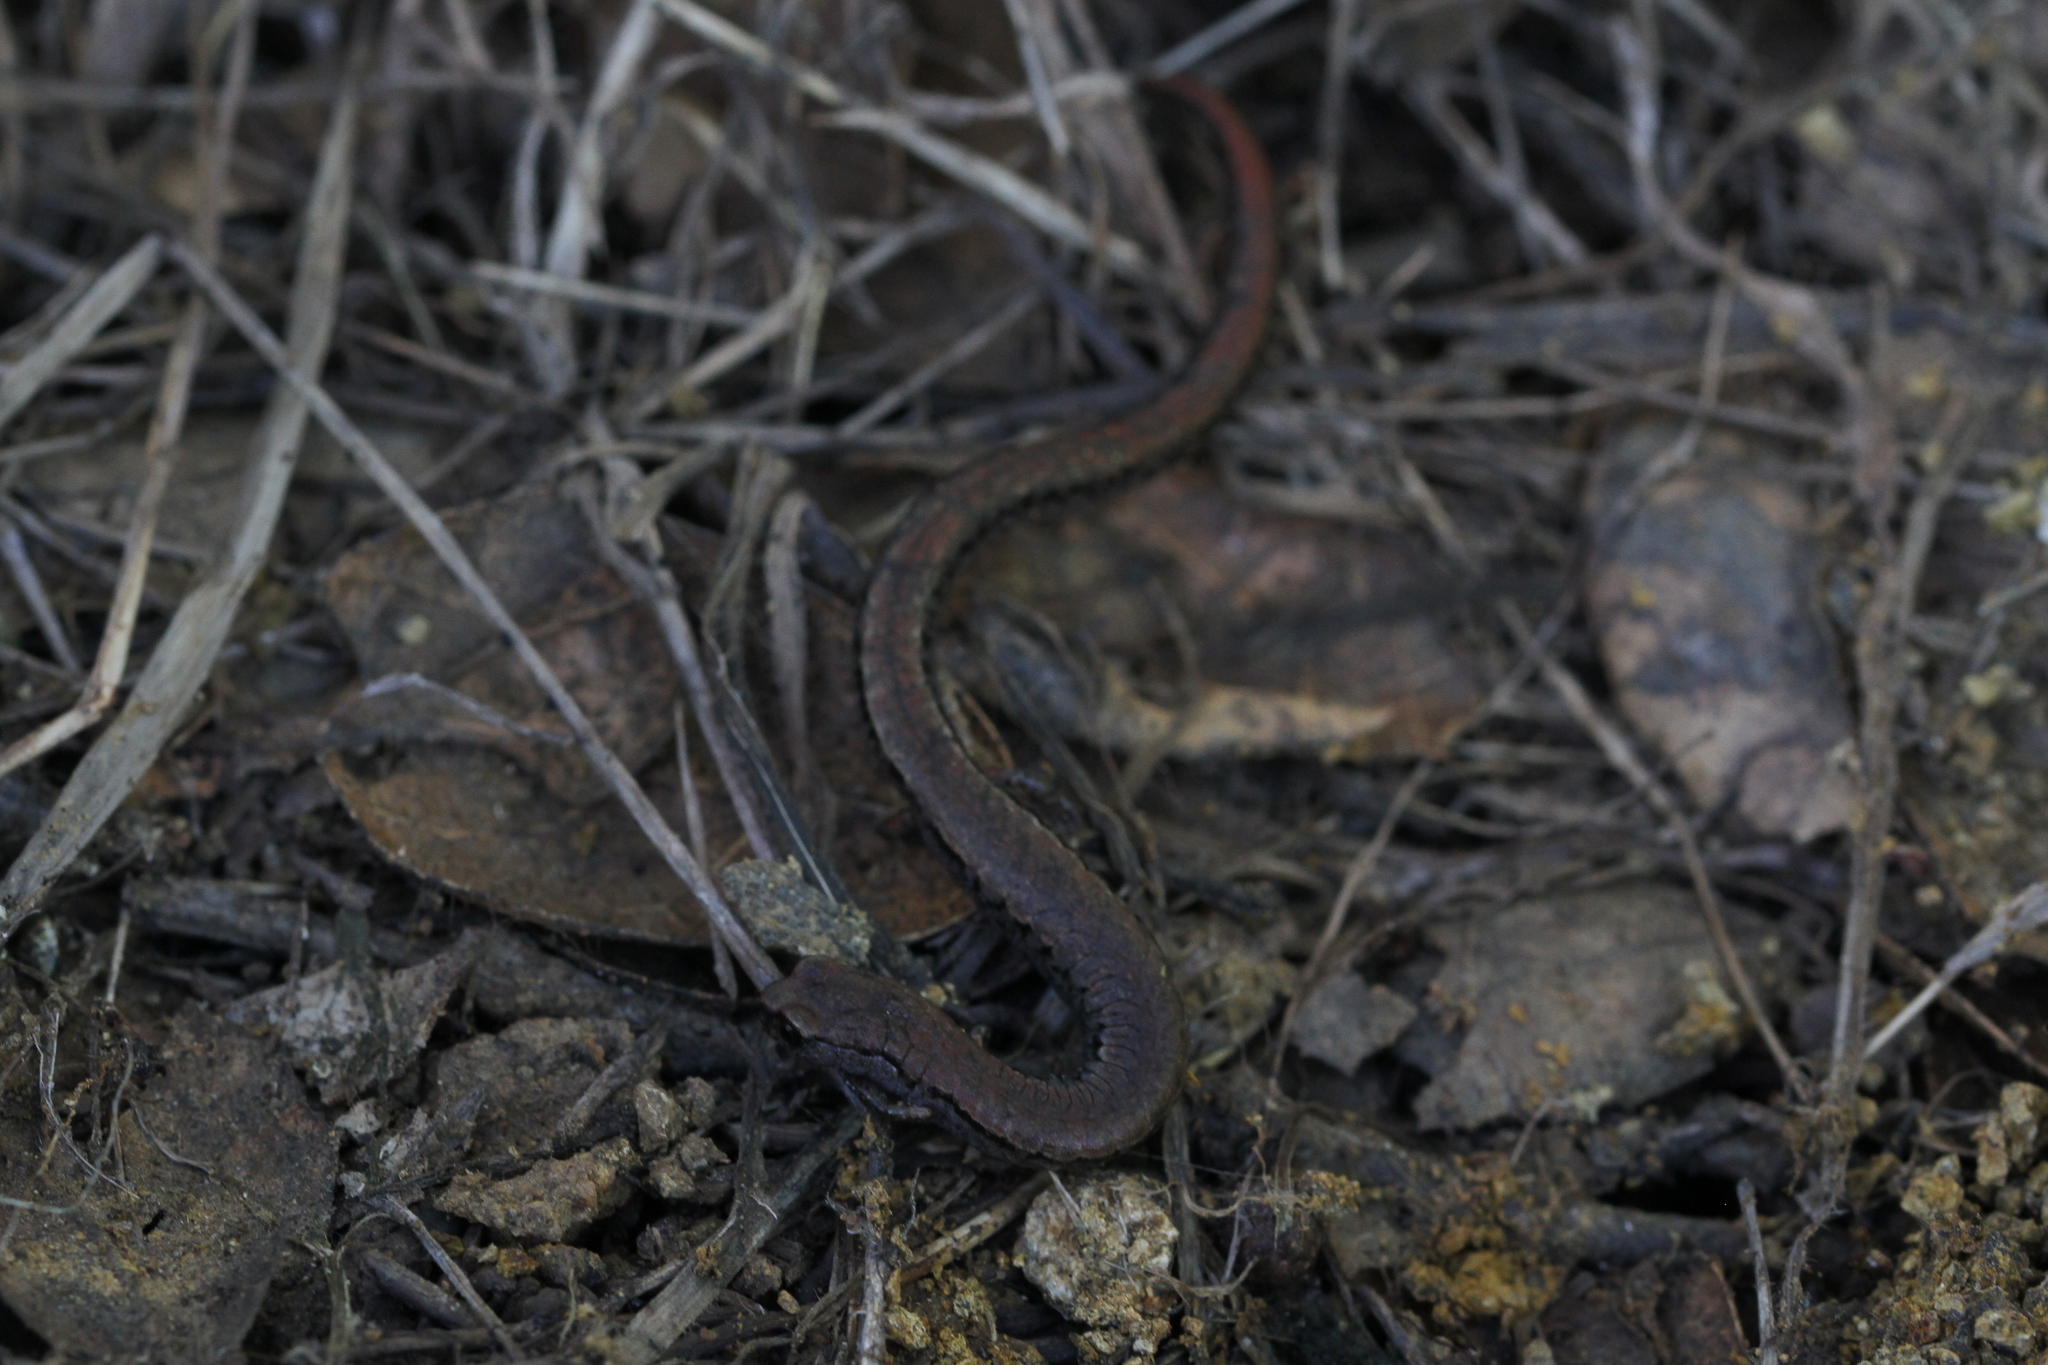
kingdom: Animalia
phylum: Chordata
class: Amphibia
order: Caudata
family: Plethodontidae
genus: Batrachoseps
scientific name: Batrachoseps attenuatus
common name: California slender salamander
